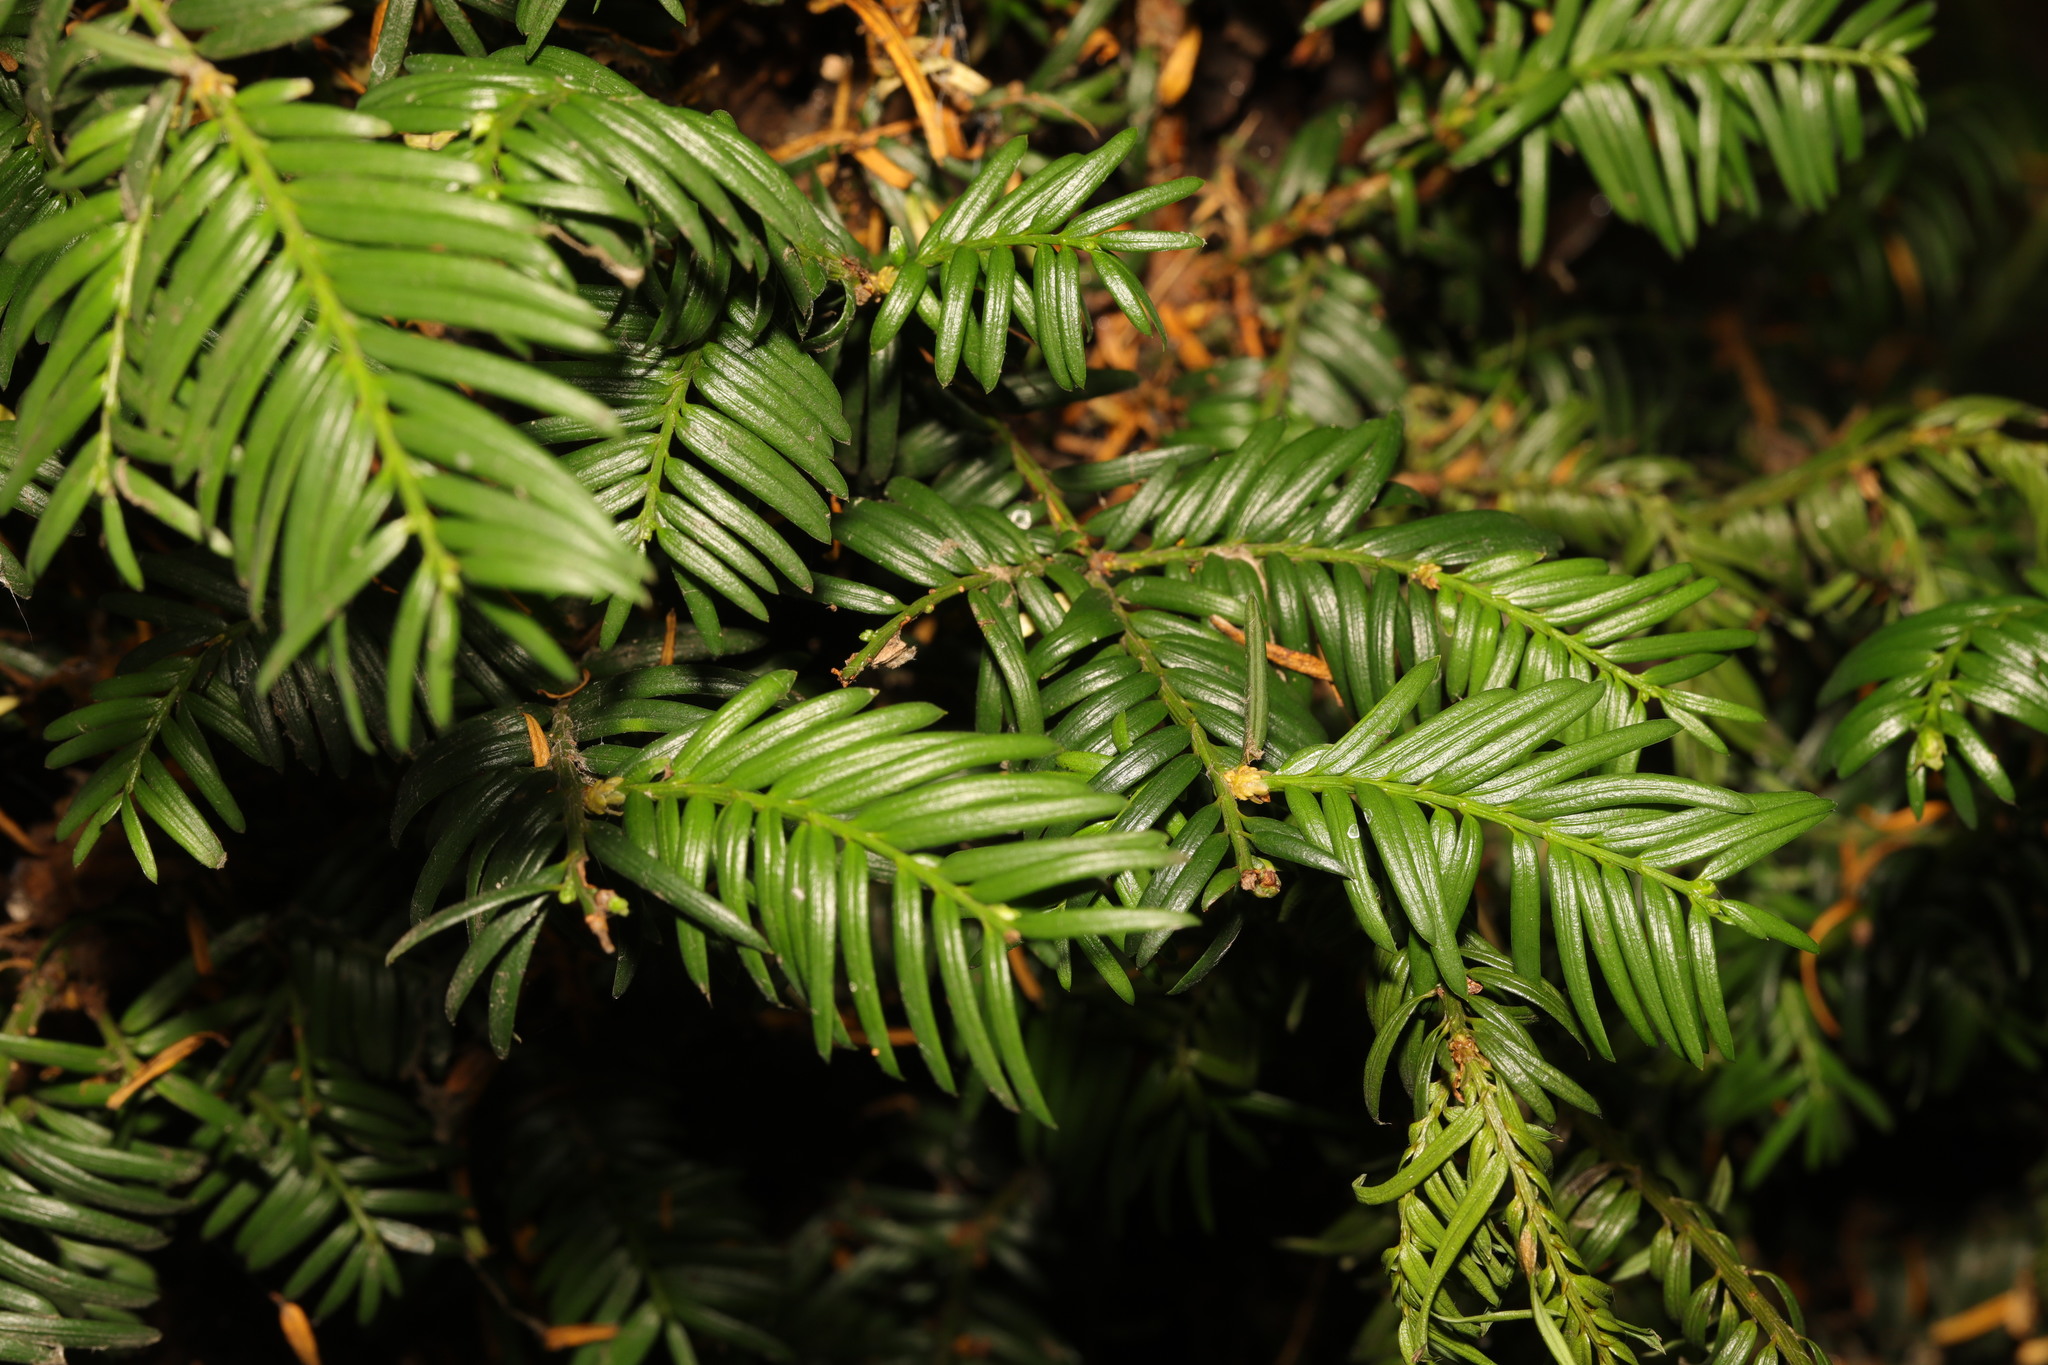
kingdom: Plantae
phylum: Tracheophyta
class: Pinopsida
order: Pinales
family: Taxaceae
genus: Taxus
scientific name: Taxus baccata
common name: Yew
